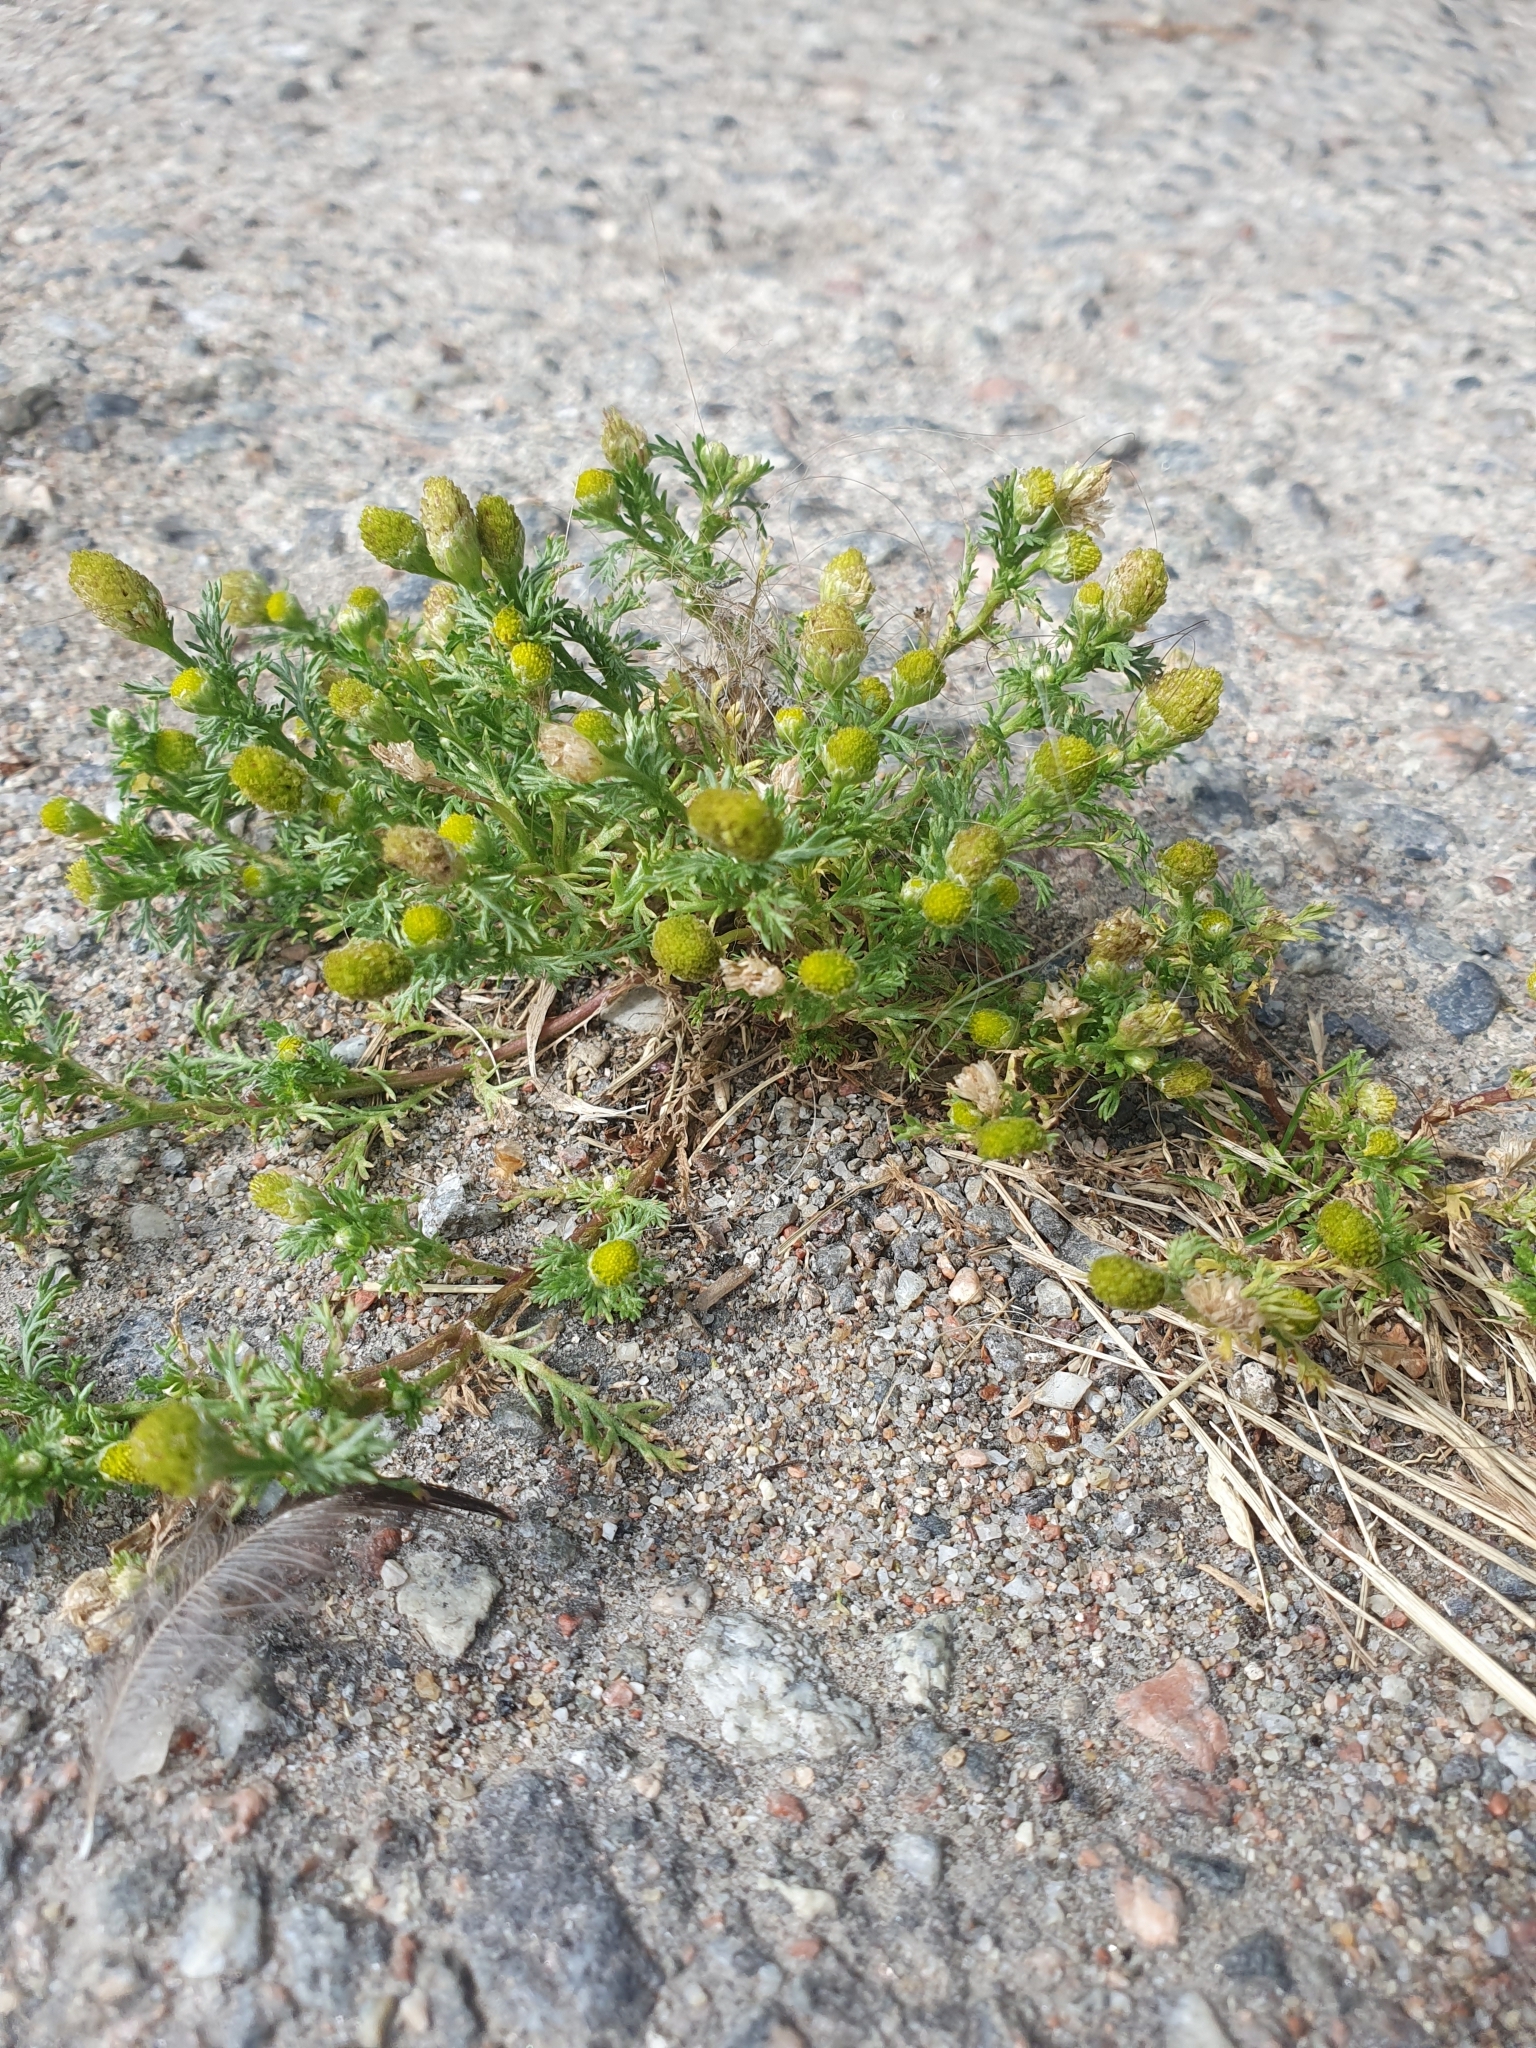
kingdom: Plantae
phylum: Tracheophyta
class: Magnoliopsida
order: Asterales
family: Asteraceae
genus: Matricaria
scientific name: Matricaria discoidea
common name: Disc mayweed
